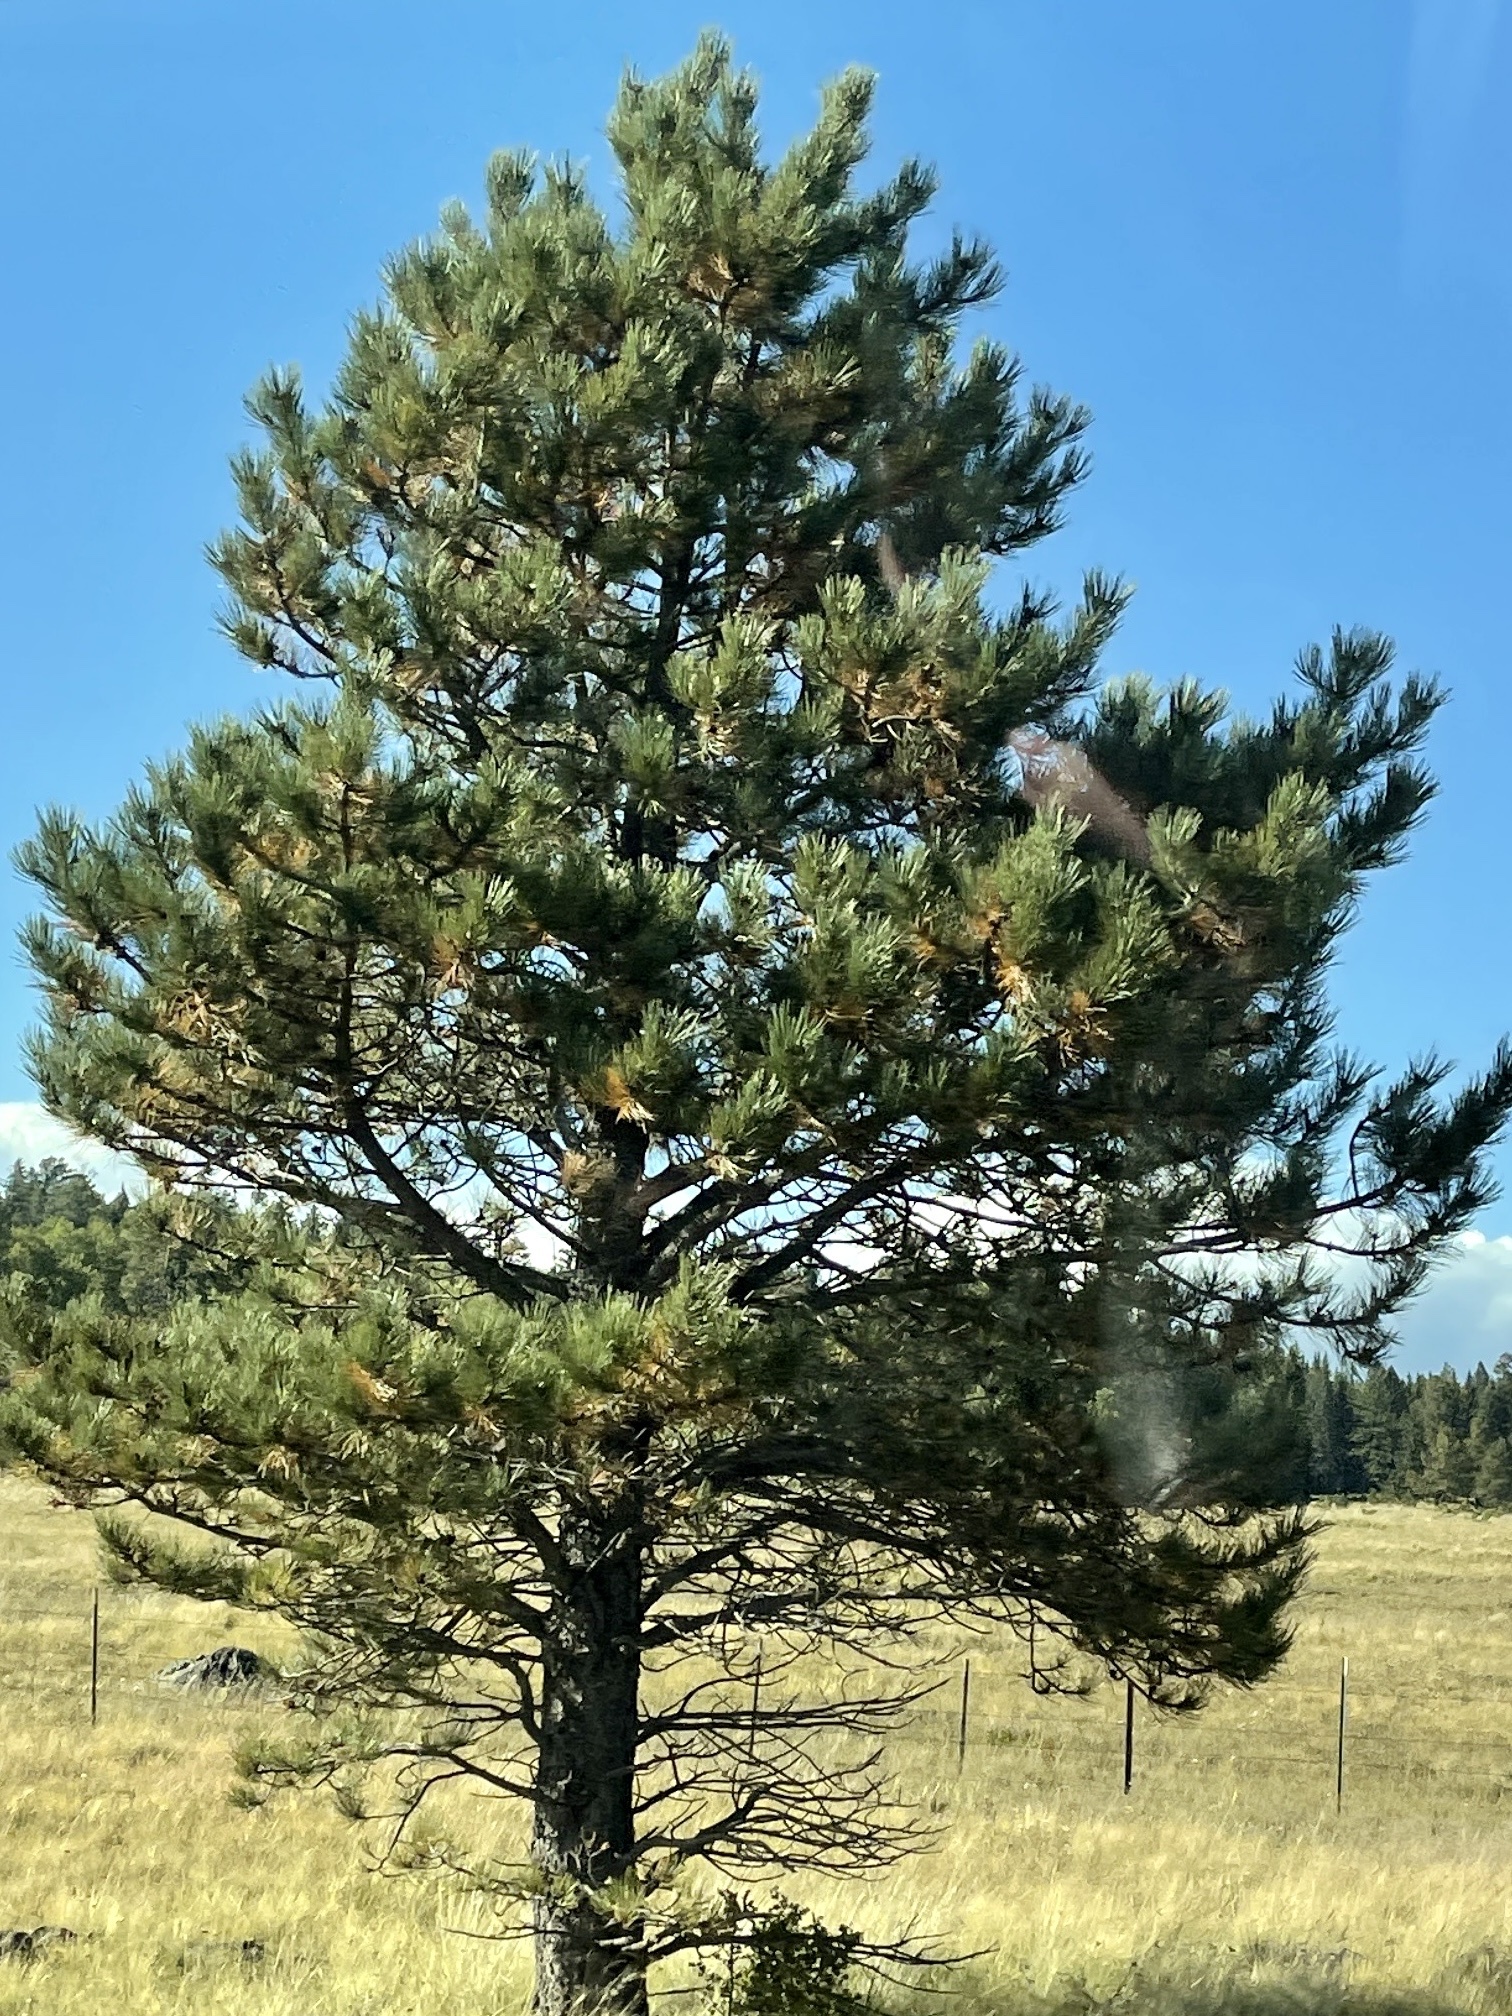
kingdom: Plantae
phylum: Tracheophyta
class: Pinopsida
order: Pinales
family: Pinaceae
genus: Pinus
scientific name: Pinus ponderosa
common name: Western yellow-pine
